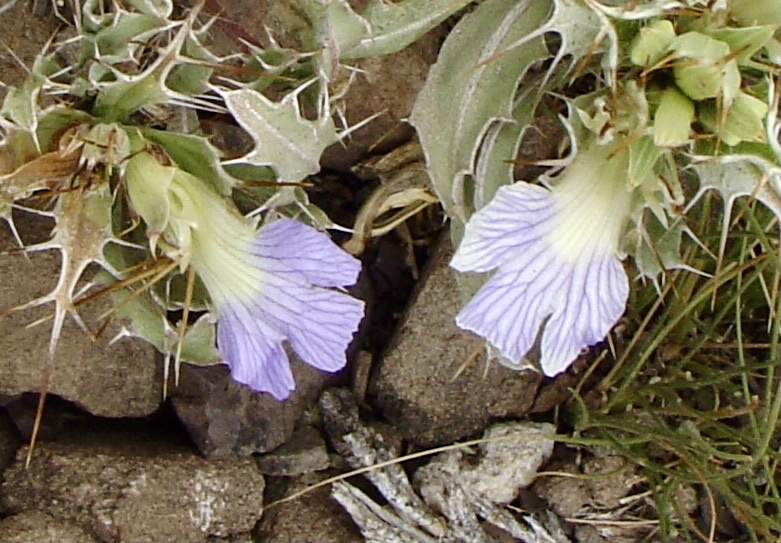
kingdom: Plantae
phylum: Tracheophyta
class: Magnoliopsida
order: Lamiales
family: Acanthaceae
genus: Blepharis
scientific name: Blepharis mitrata
